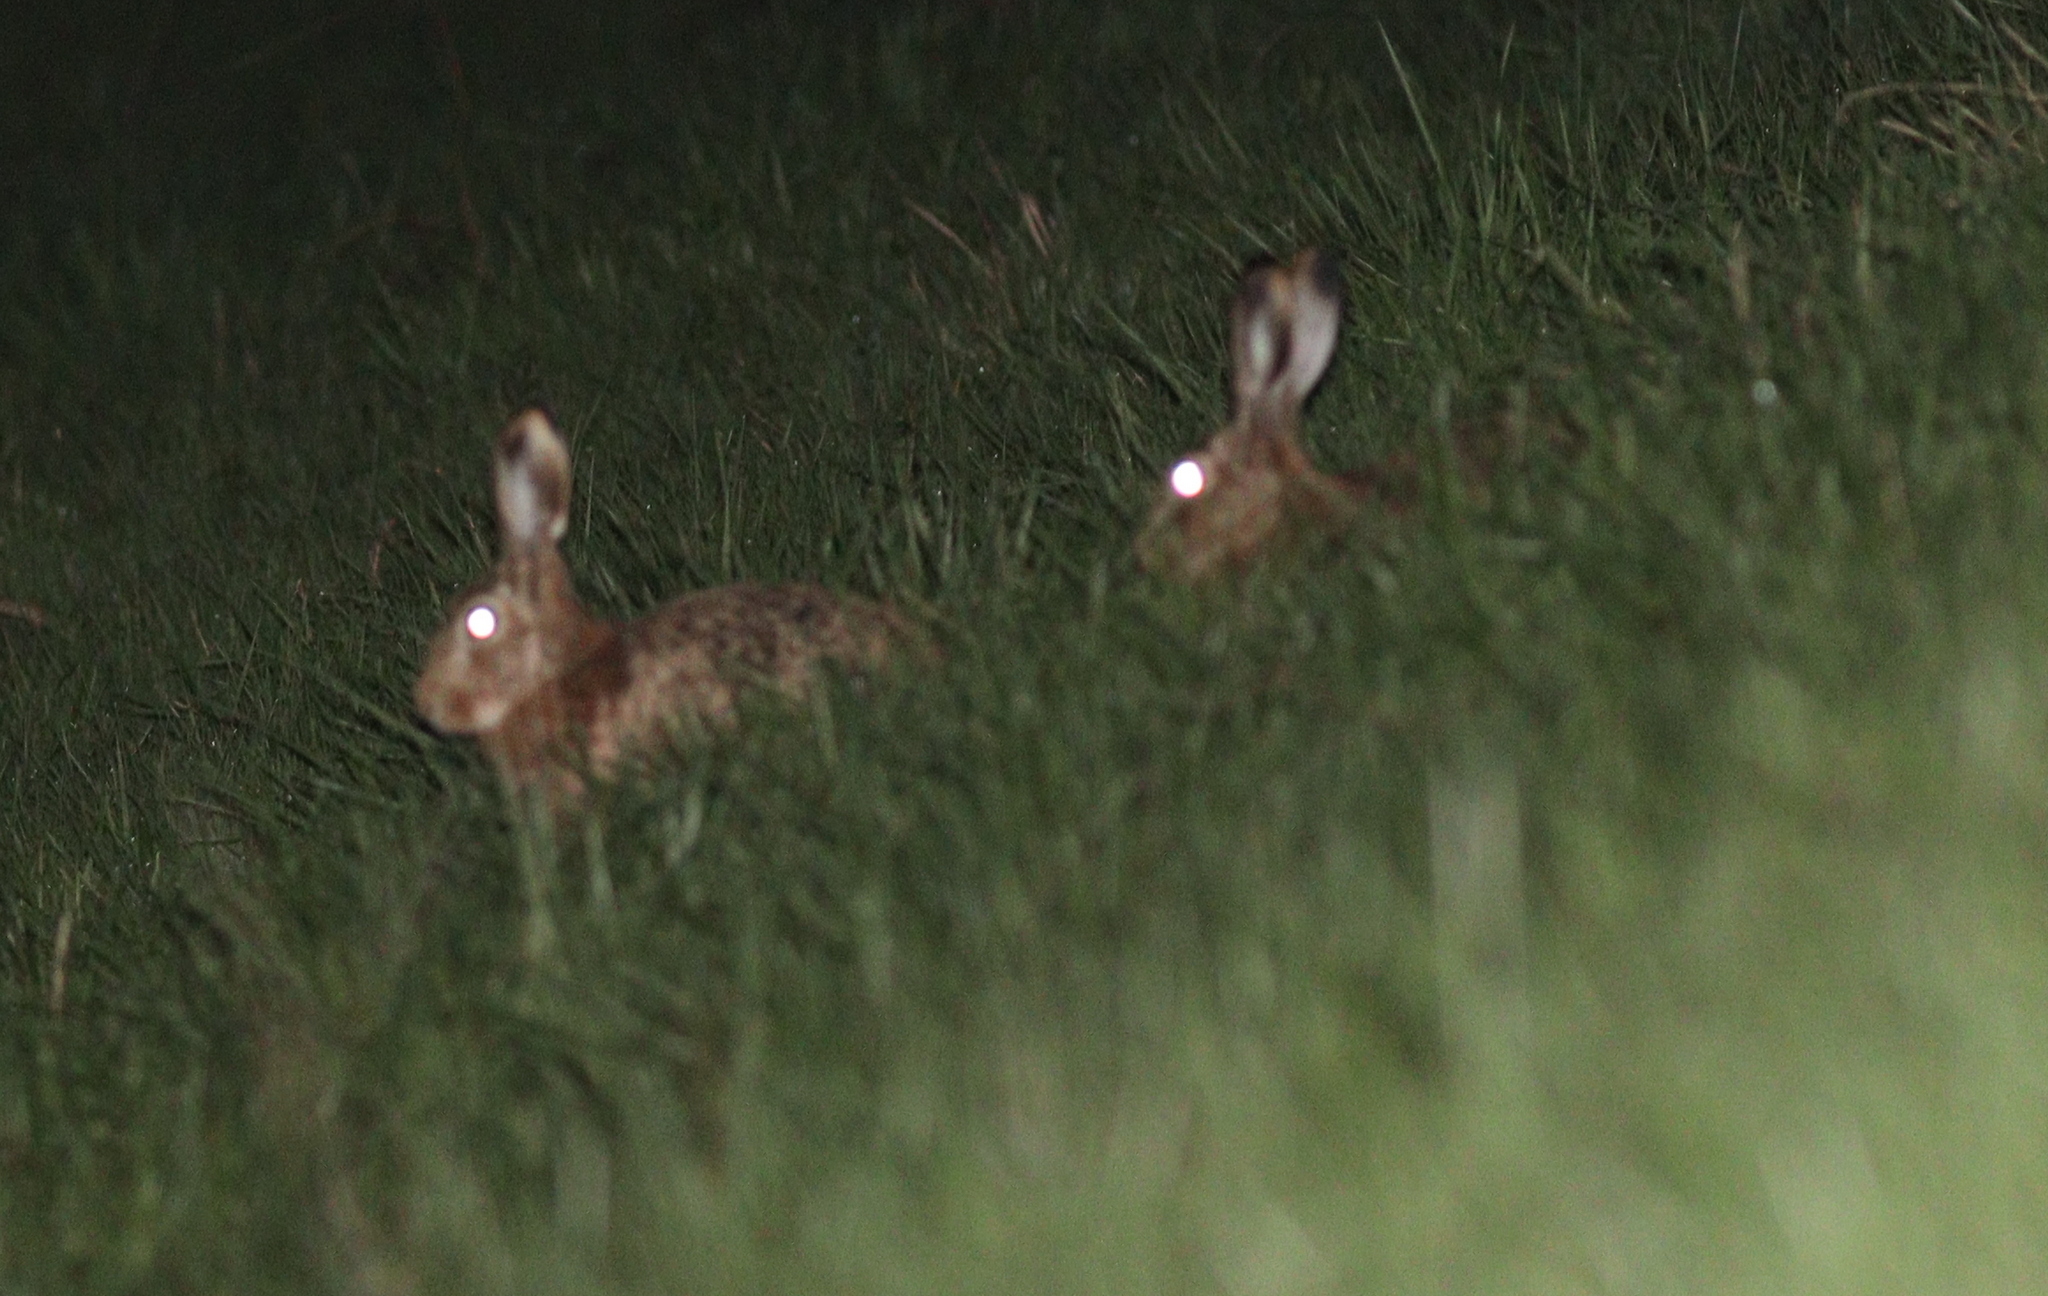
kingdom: Animalia
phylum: Chordata
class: Mammalia
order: Lagomorpha
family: Leporidae
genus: Lepus
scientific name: Lepus europaeus
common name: European hare
